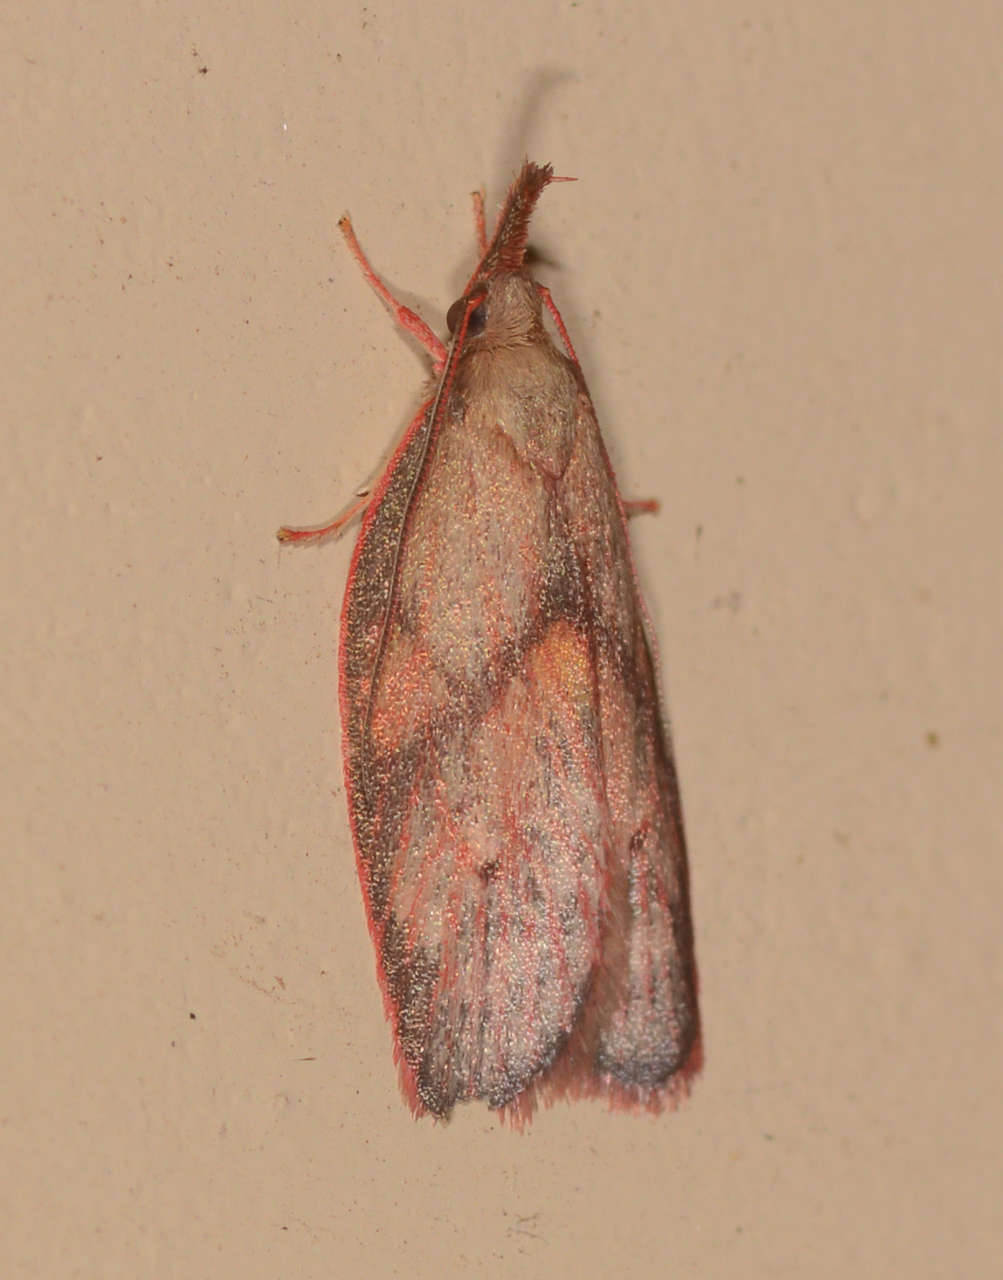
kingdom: Animalia
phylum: Arthropoda
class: Insecta
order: Lepidoptera
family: Depressariidae
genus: Enchocrates
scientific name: Enchocrates glaucopis
